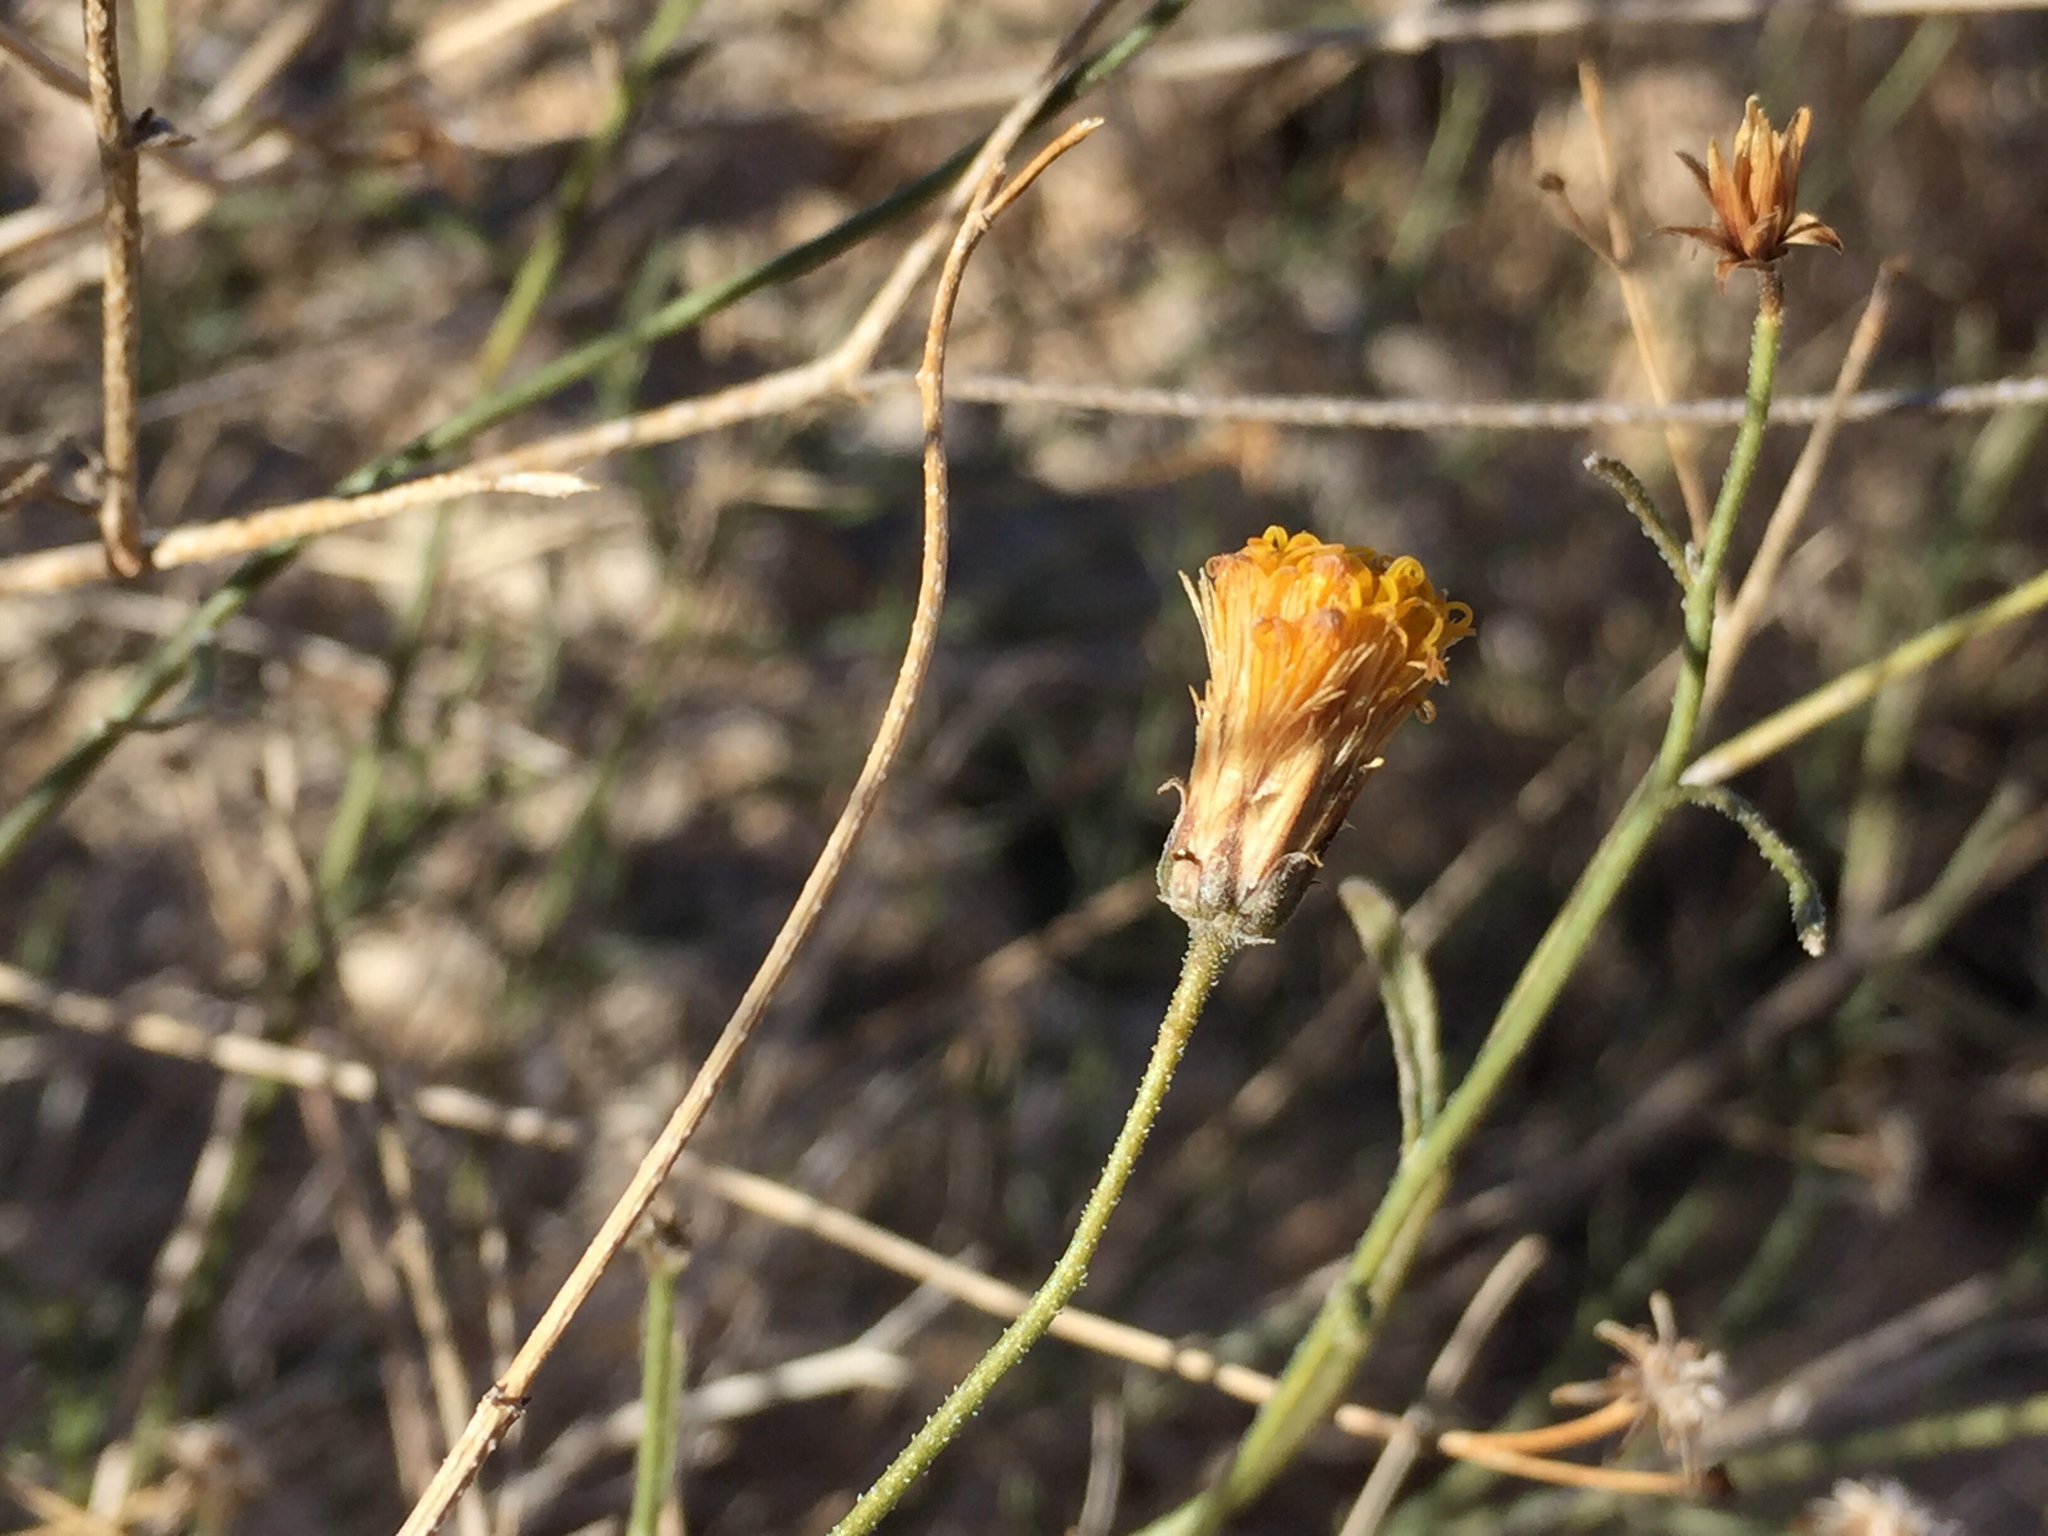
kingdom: Plantae
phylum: Tracheophyta
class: Magnoliopsida
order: Asterales
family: Asteraceae
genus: Bebbia
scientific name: Bebbia juncea
